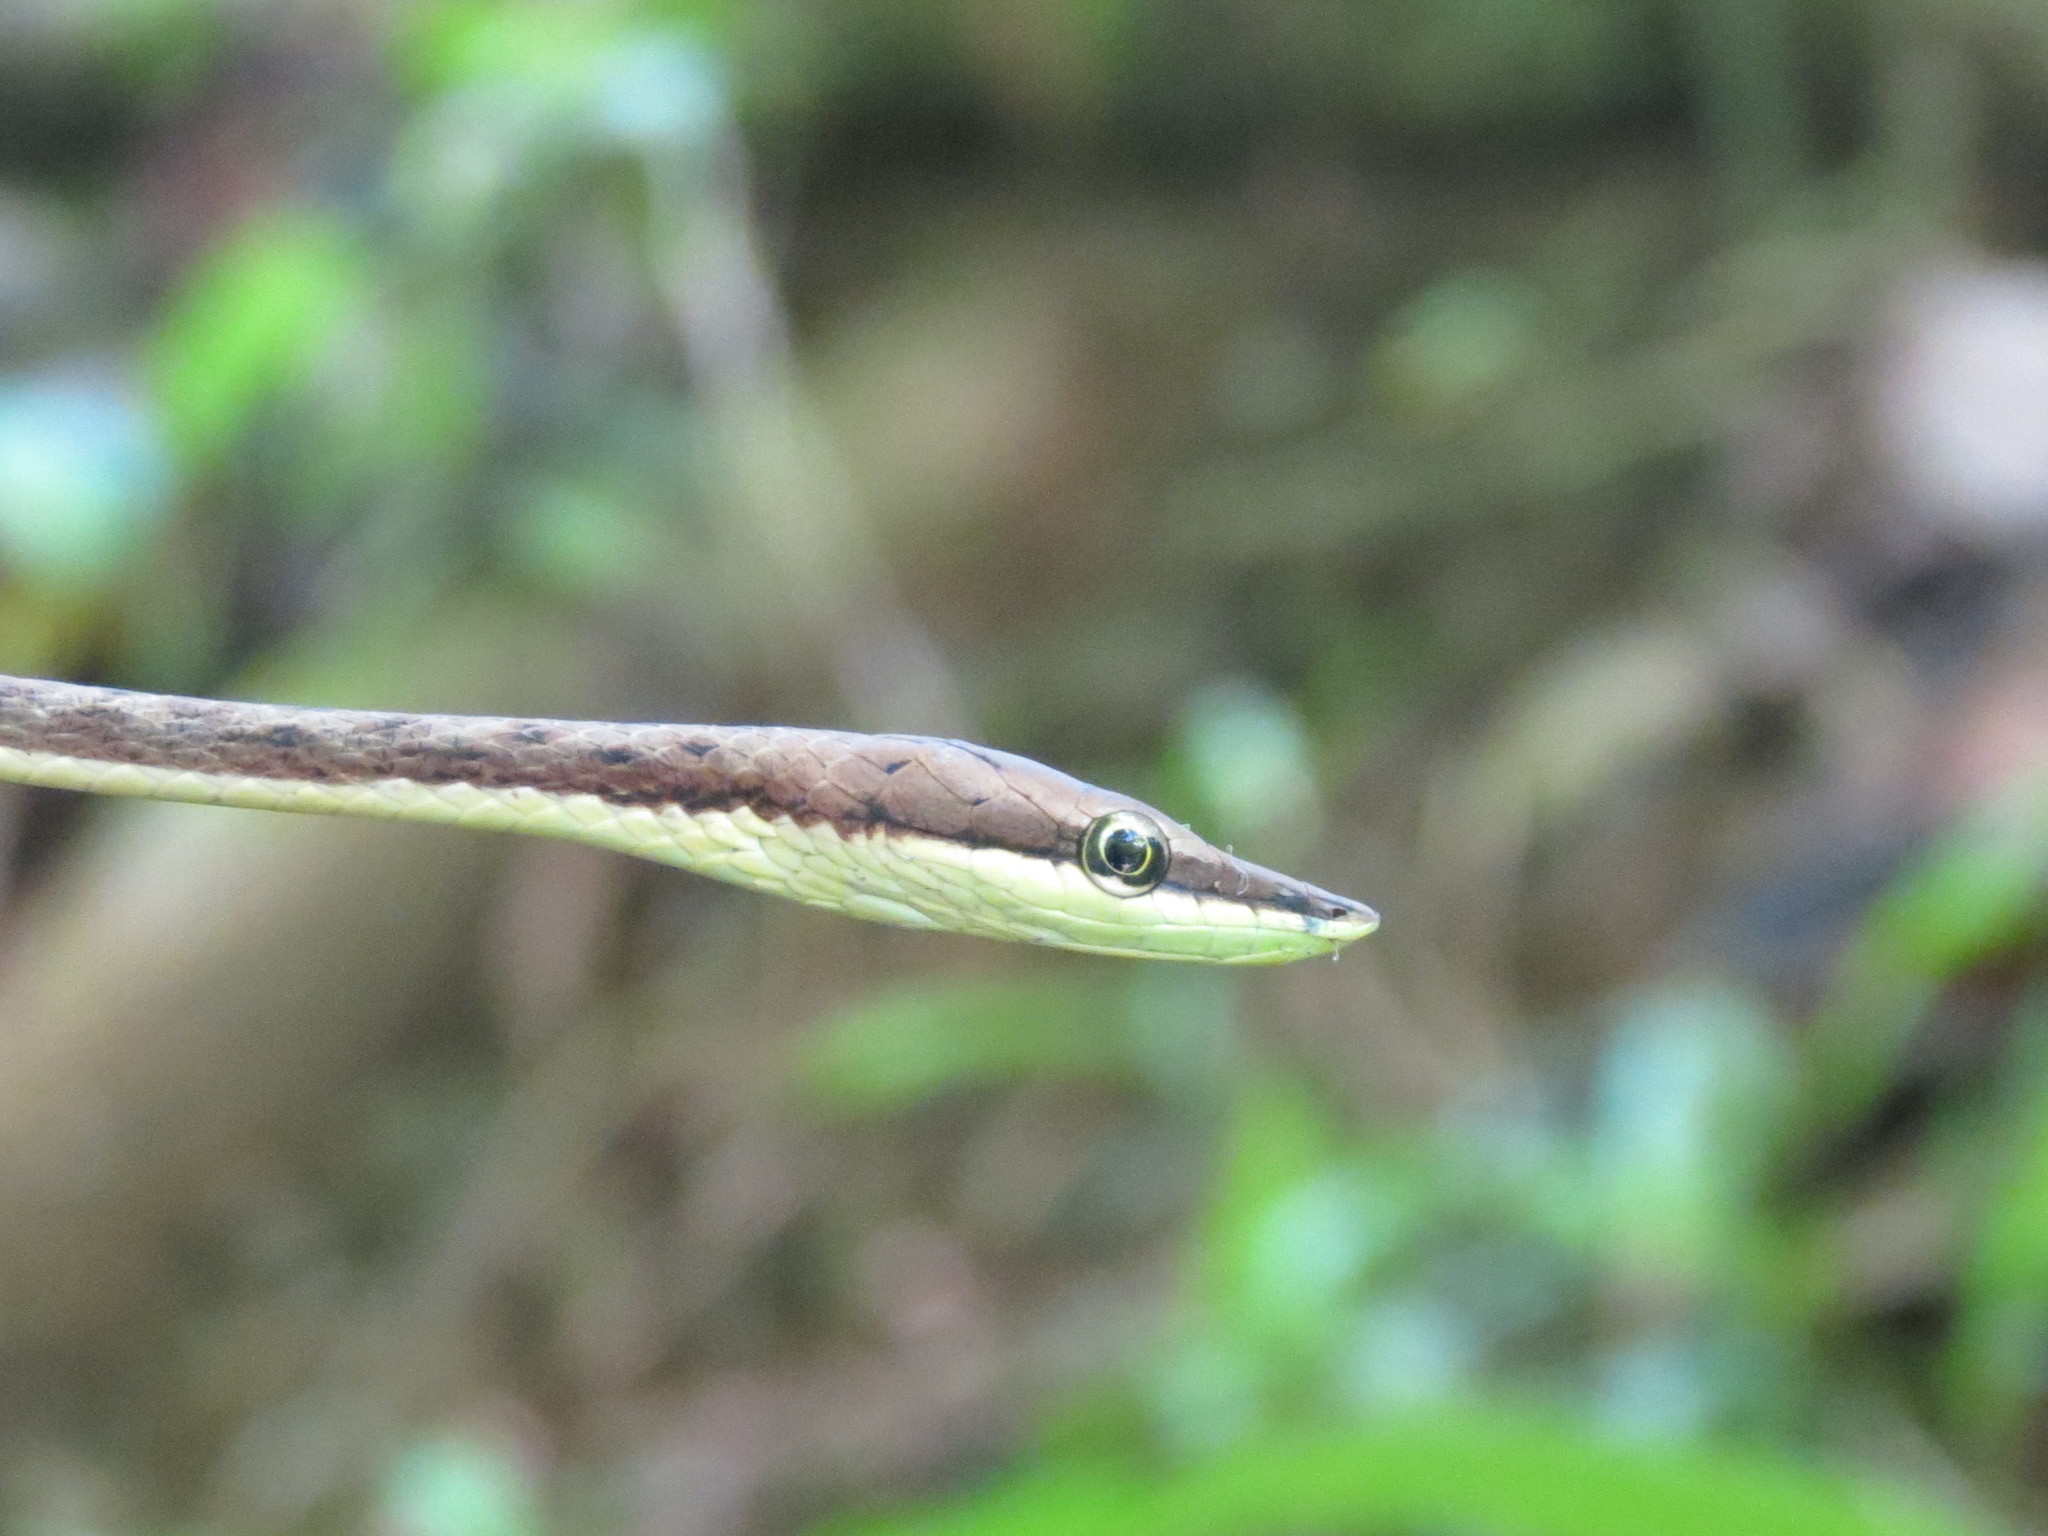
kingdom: Animalia
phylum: Chordata
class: Squamata
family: Colubridae
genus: Oxybelis
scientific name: Oxybelis koehleri
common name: Köhler’s vine snake
